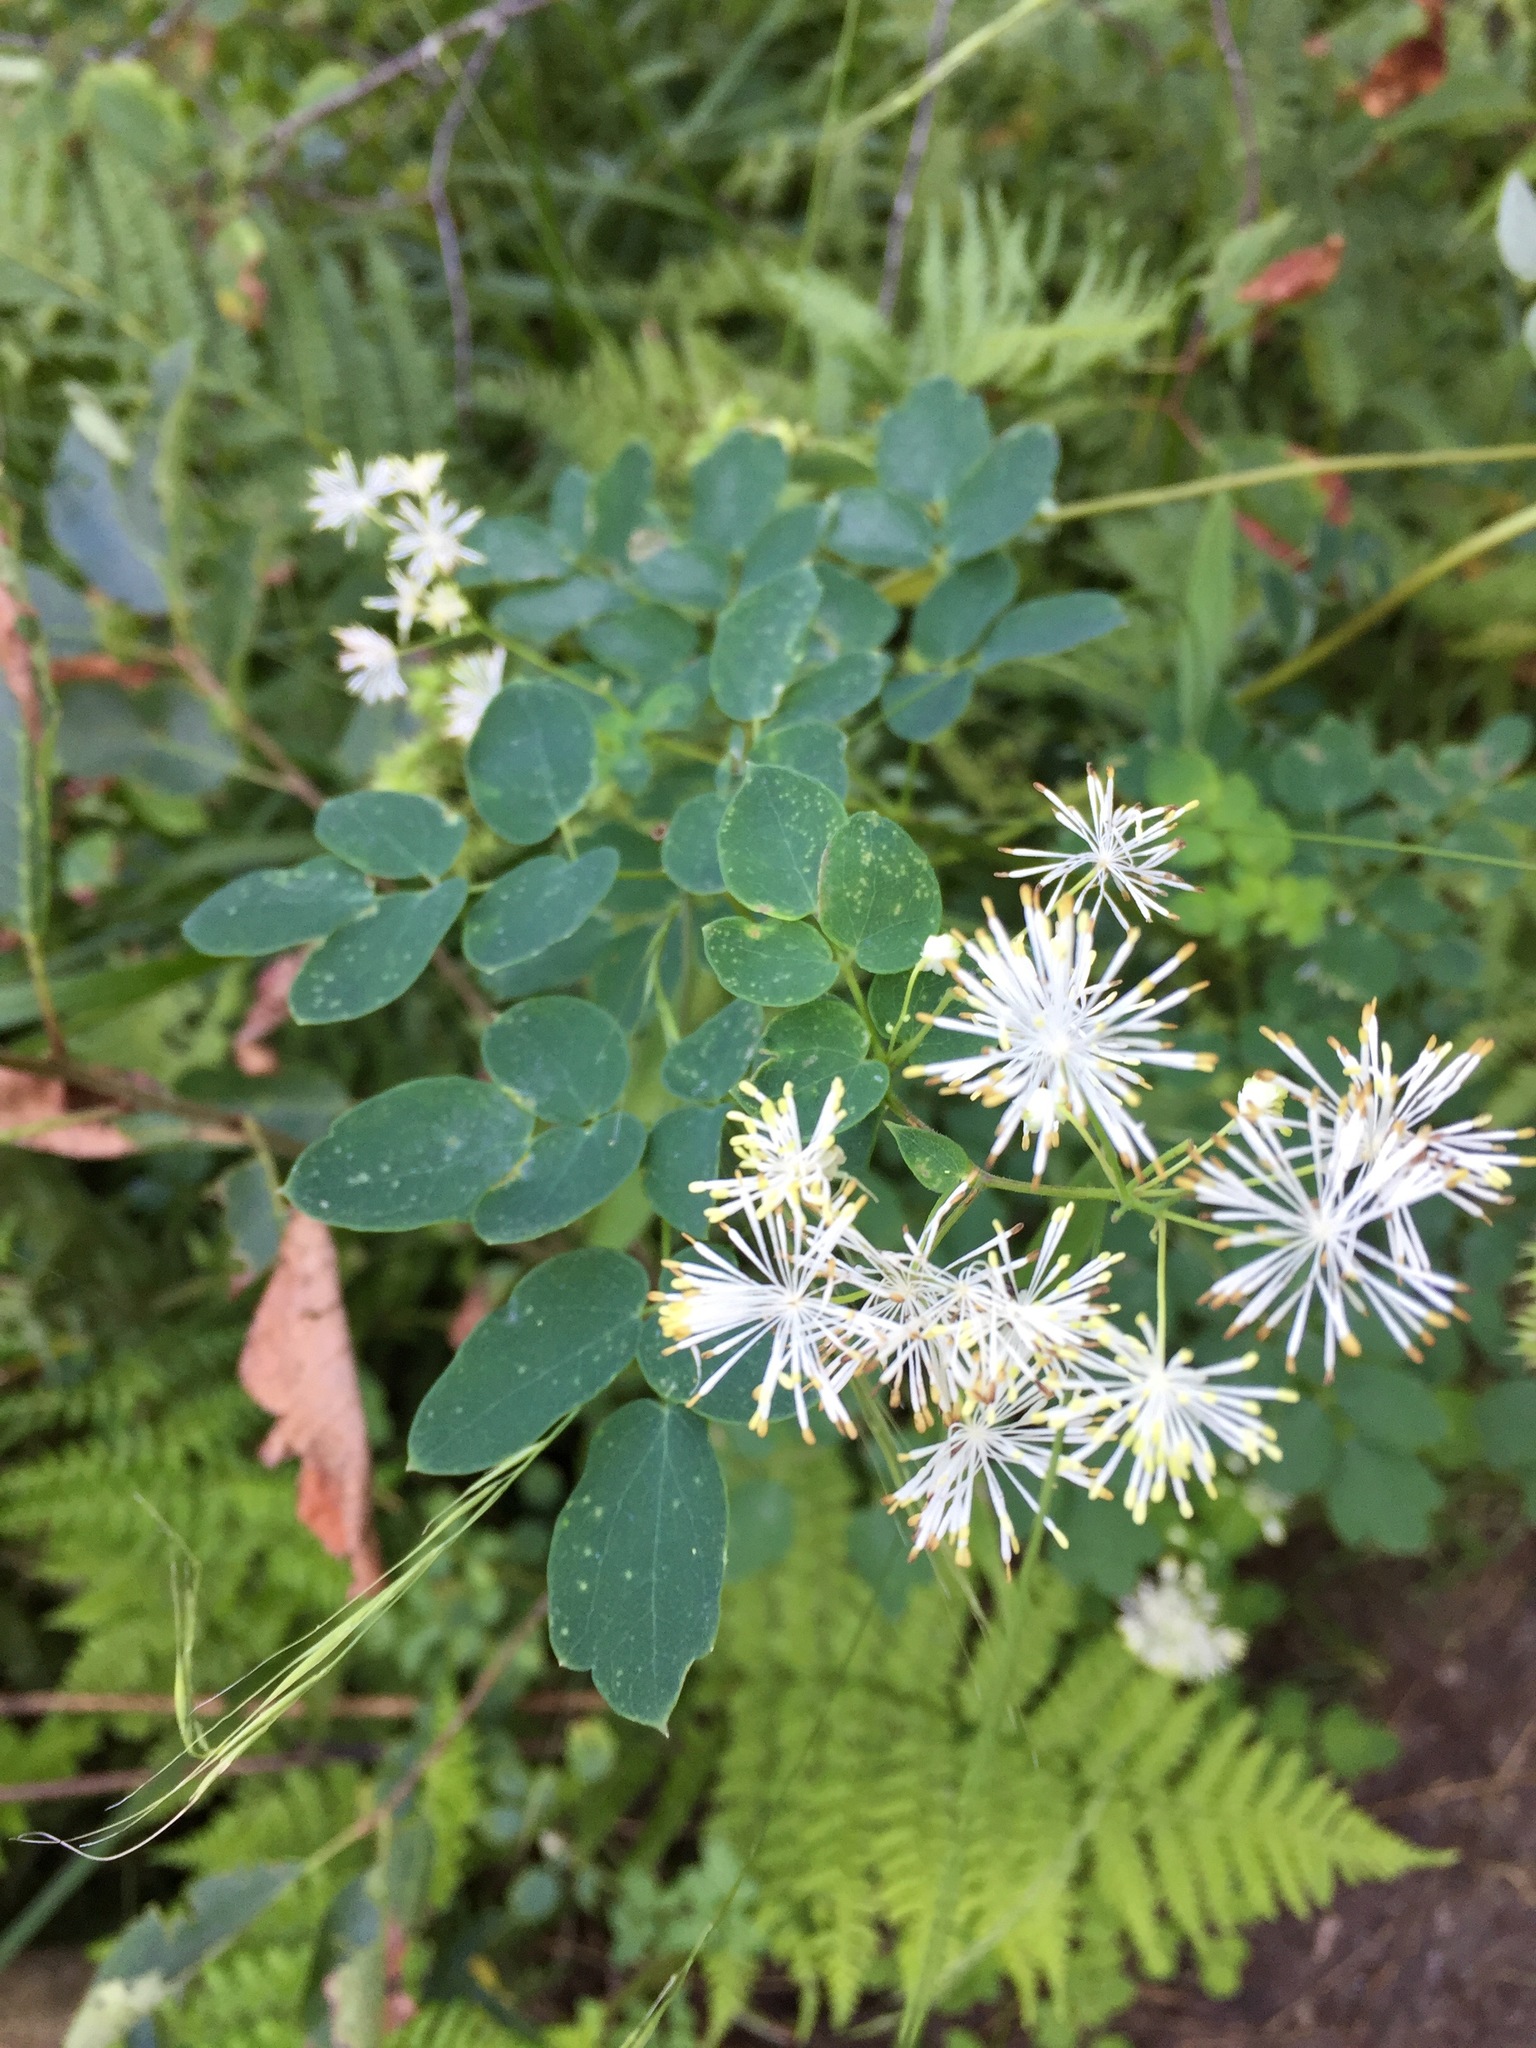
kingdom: Plantae
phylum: Tracheophyta
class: Magnoliopsida
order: Ranunculales
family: Ranunculaceae
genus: Thalictrum
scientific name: Thalictrum pubescens
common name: King-of-the-meadow
